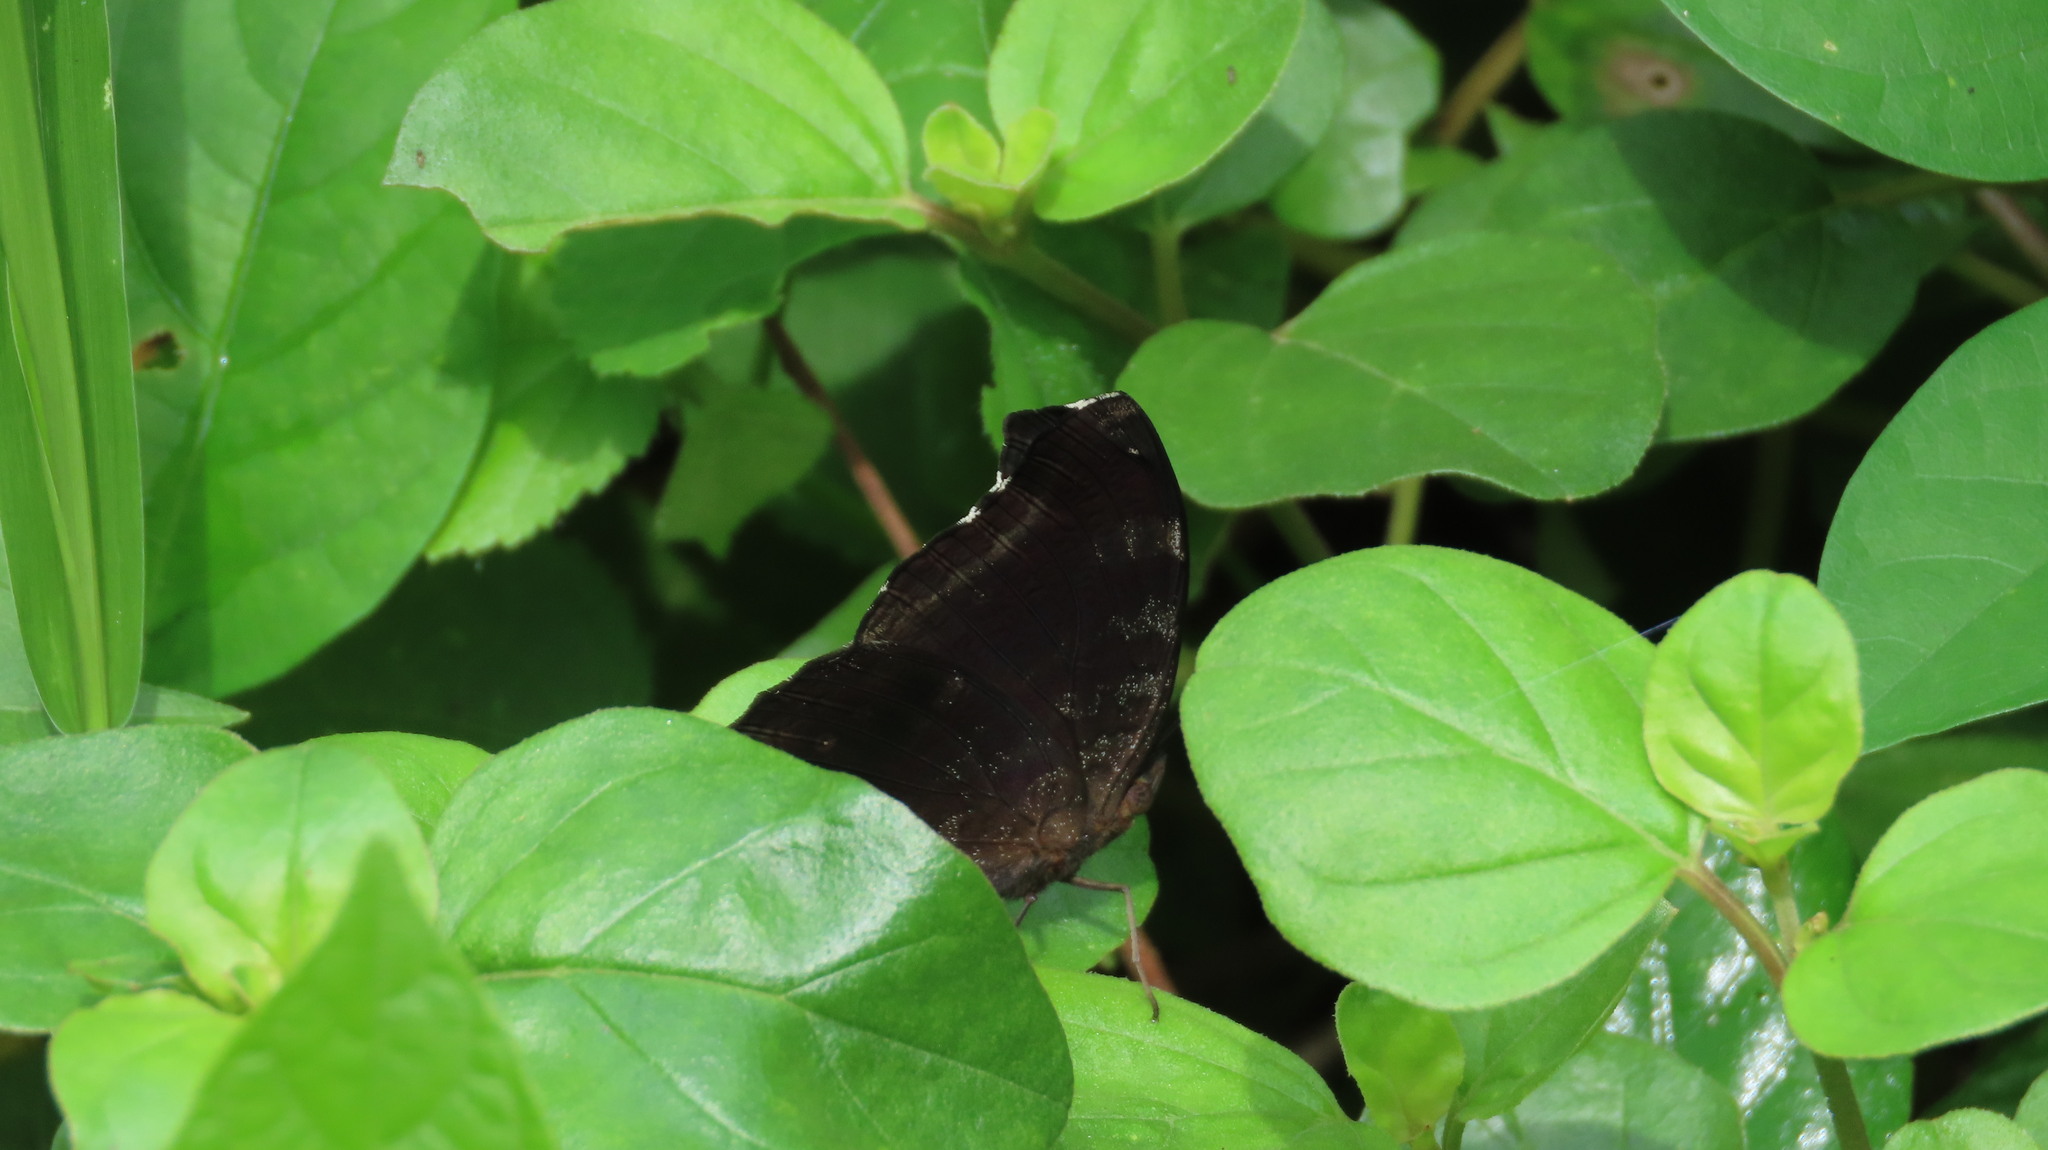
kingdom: Animalia
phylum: Arthropoda
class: Insecta
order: Lepidoptera
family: Nymphalidae
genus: Junonia
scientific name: Junonia iphita
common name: Chocolate pansy
